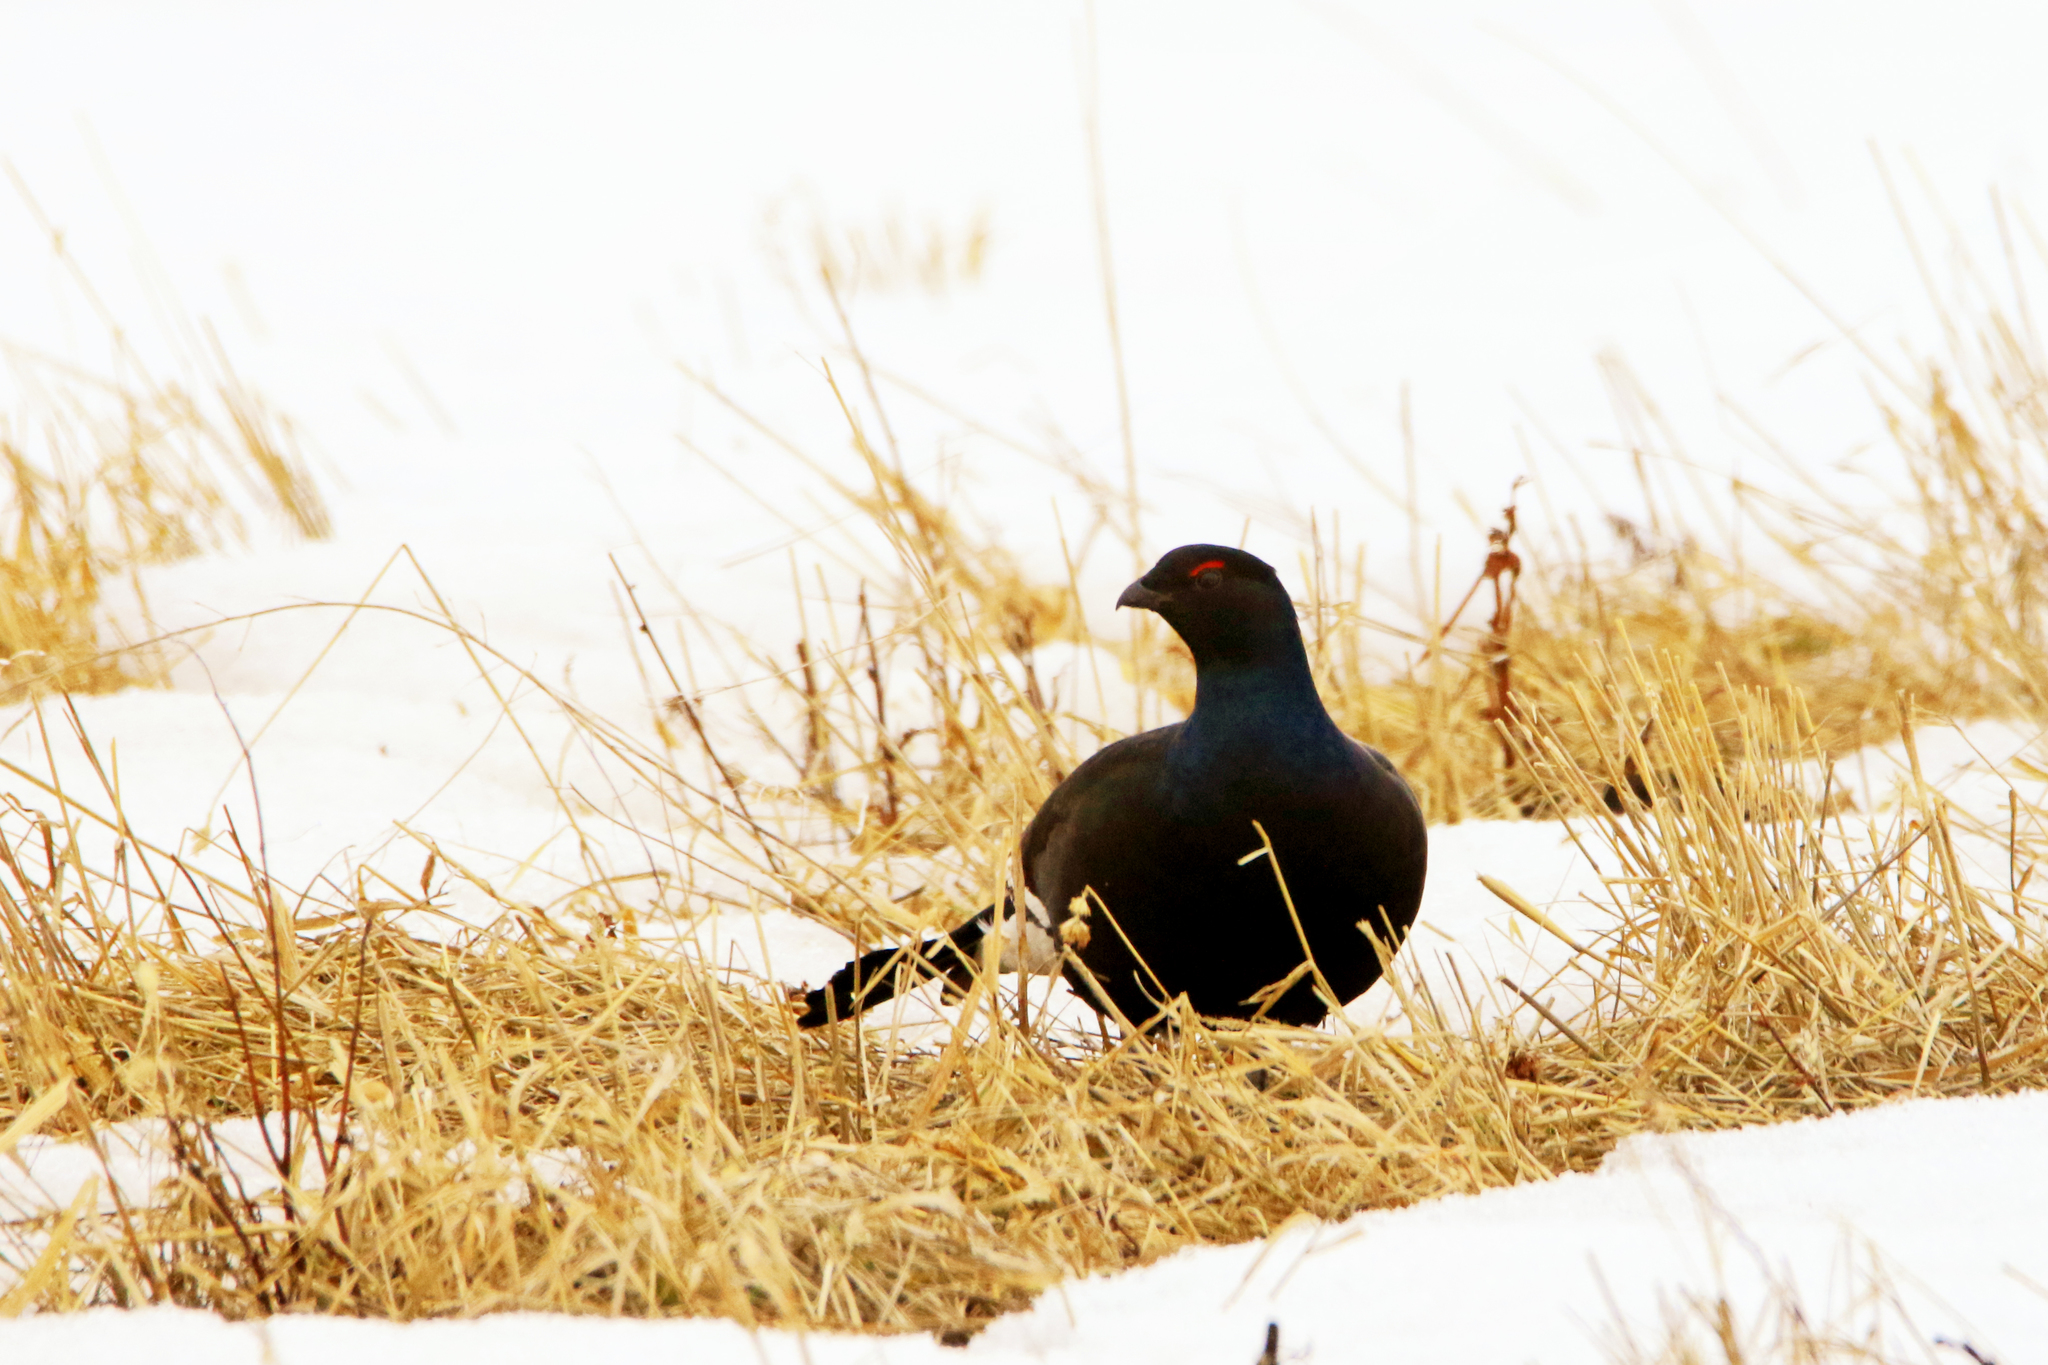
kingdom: Animalia
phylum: Chordata
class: Aves
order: Galliformes
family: Phasianidae
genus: Lyrurus
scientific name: Lyrurus tetrix
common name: Black grouse
